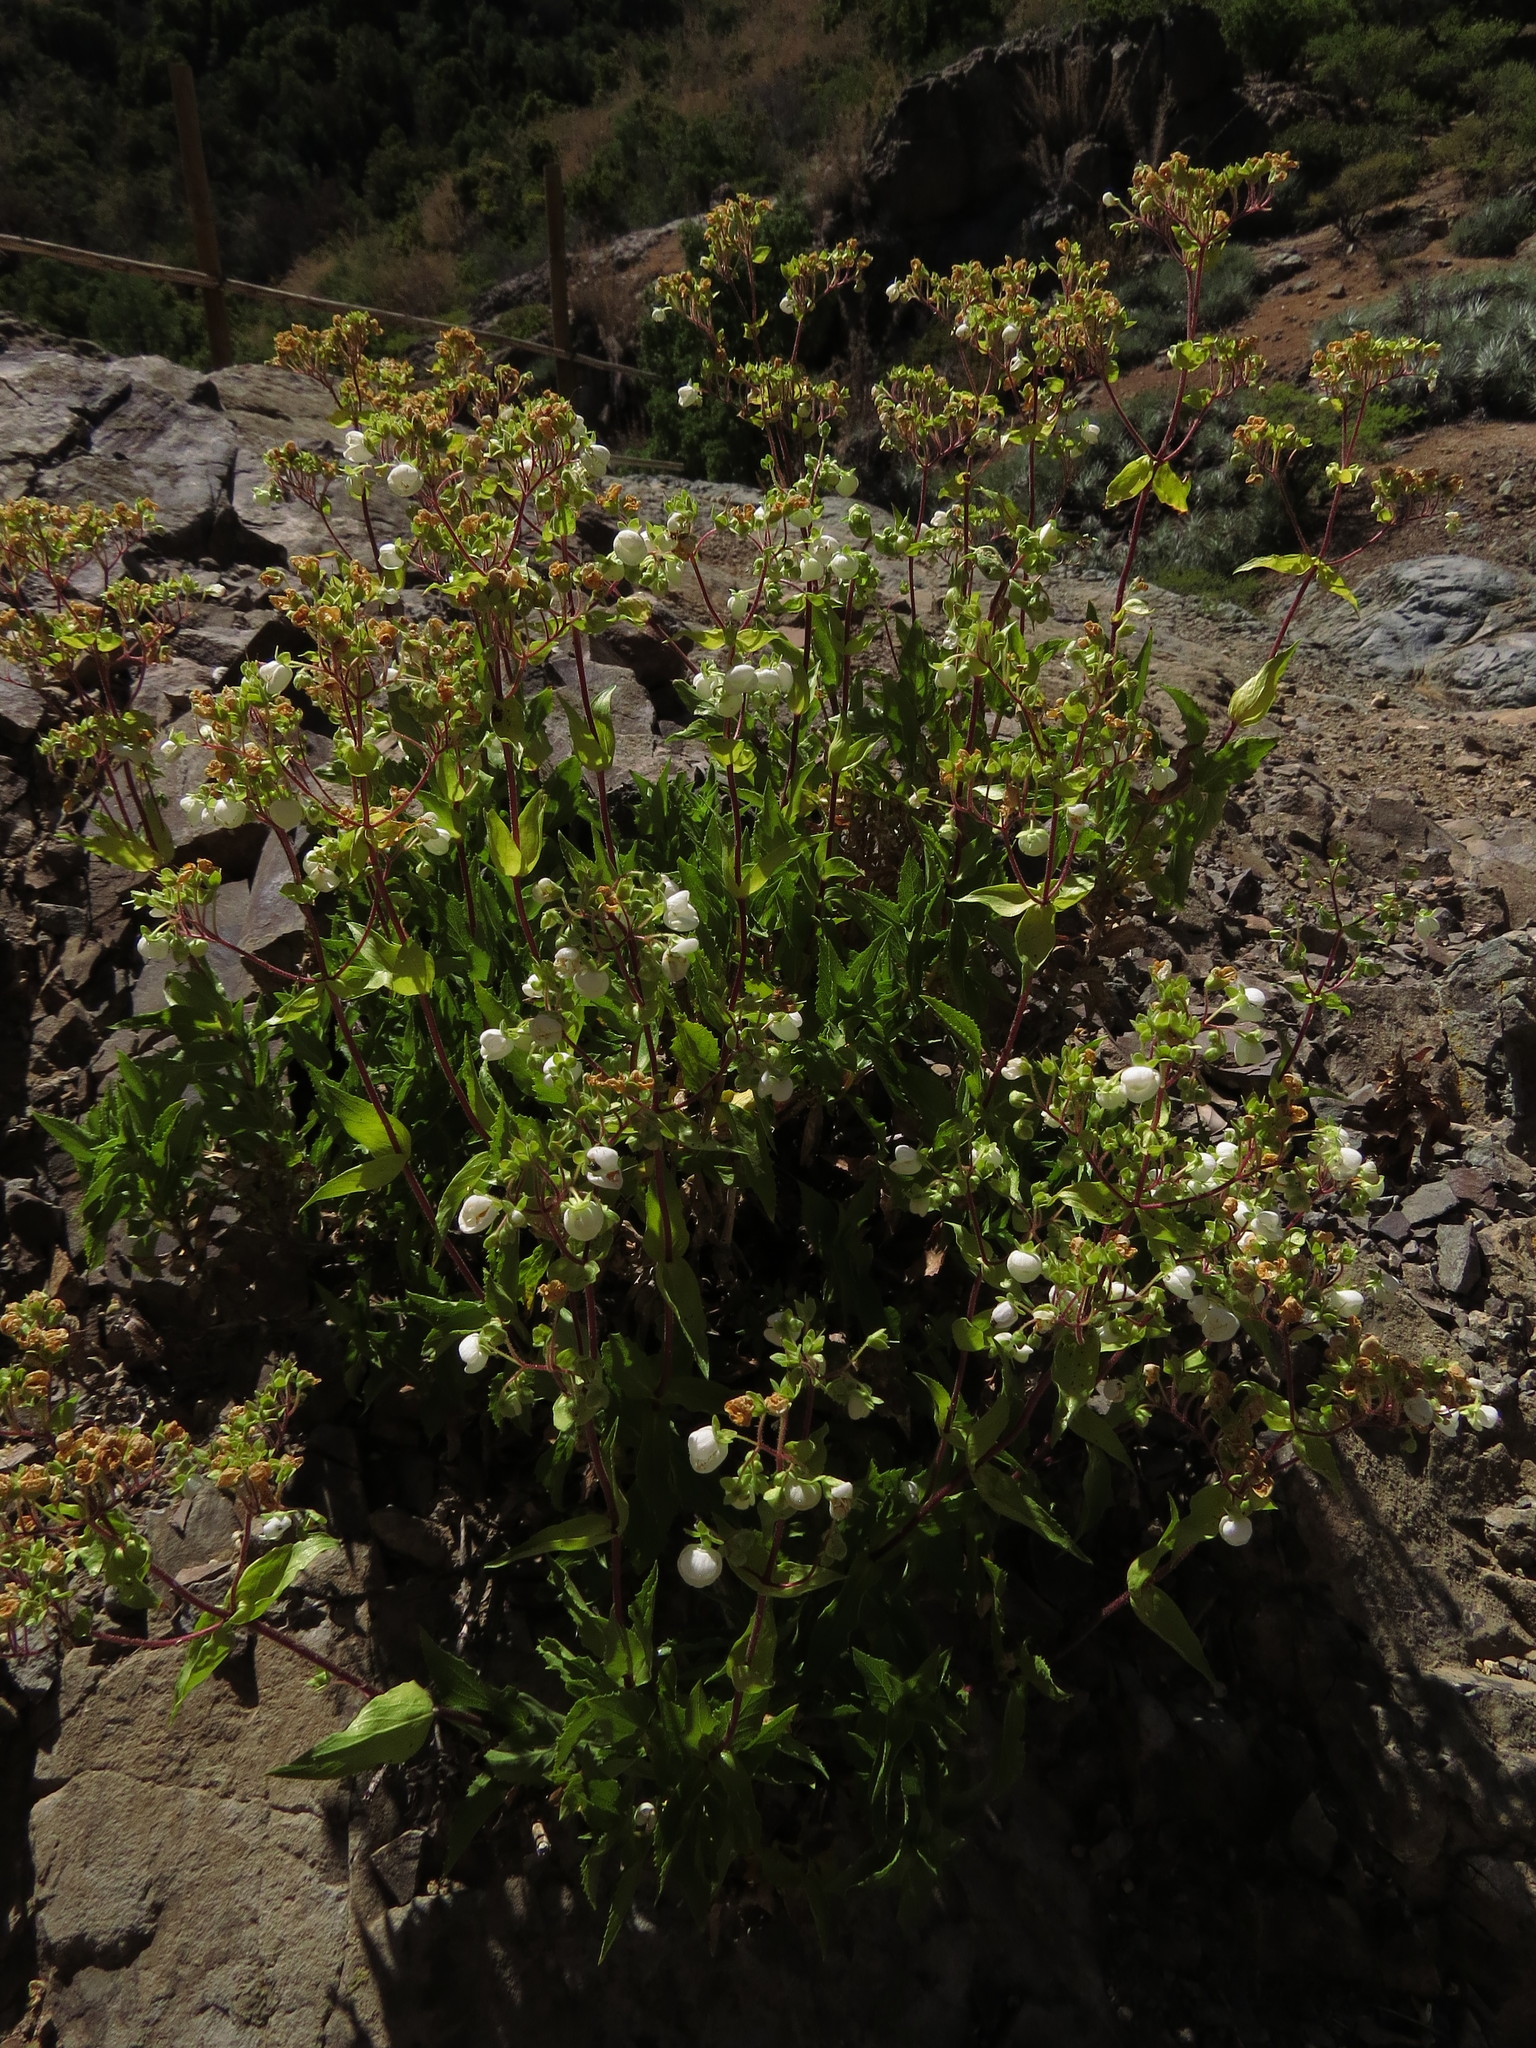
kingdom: Plantae
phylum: Tracheophyta
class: Magnoliopsida
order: Lamiales
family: Calceolariaceae
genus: Calceolaria
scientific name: Calceolaria nitida
